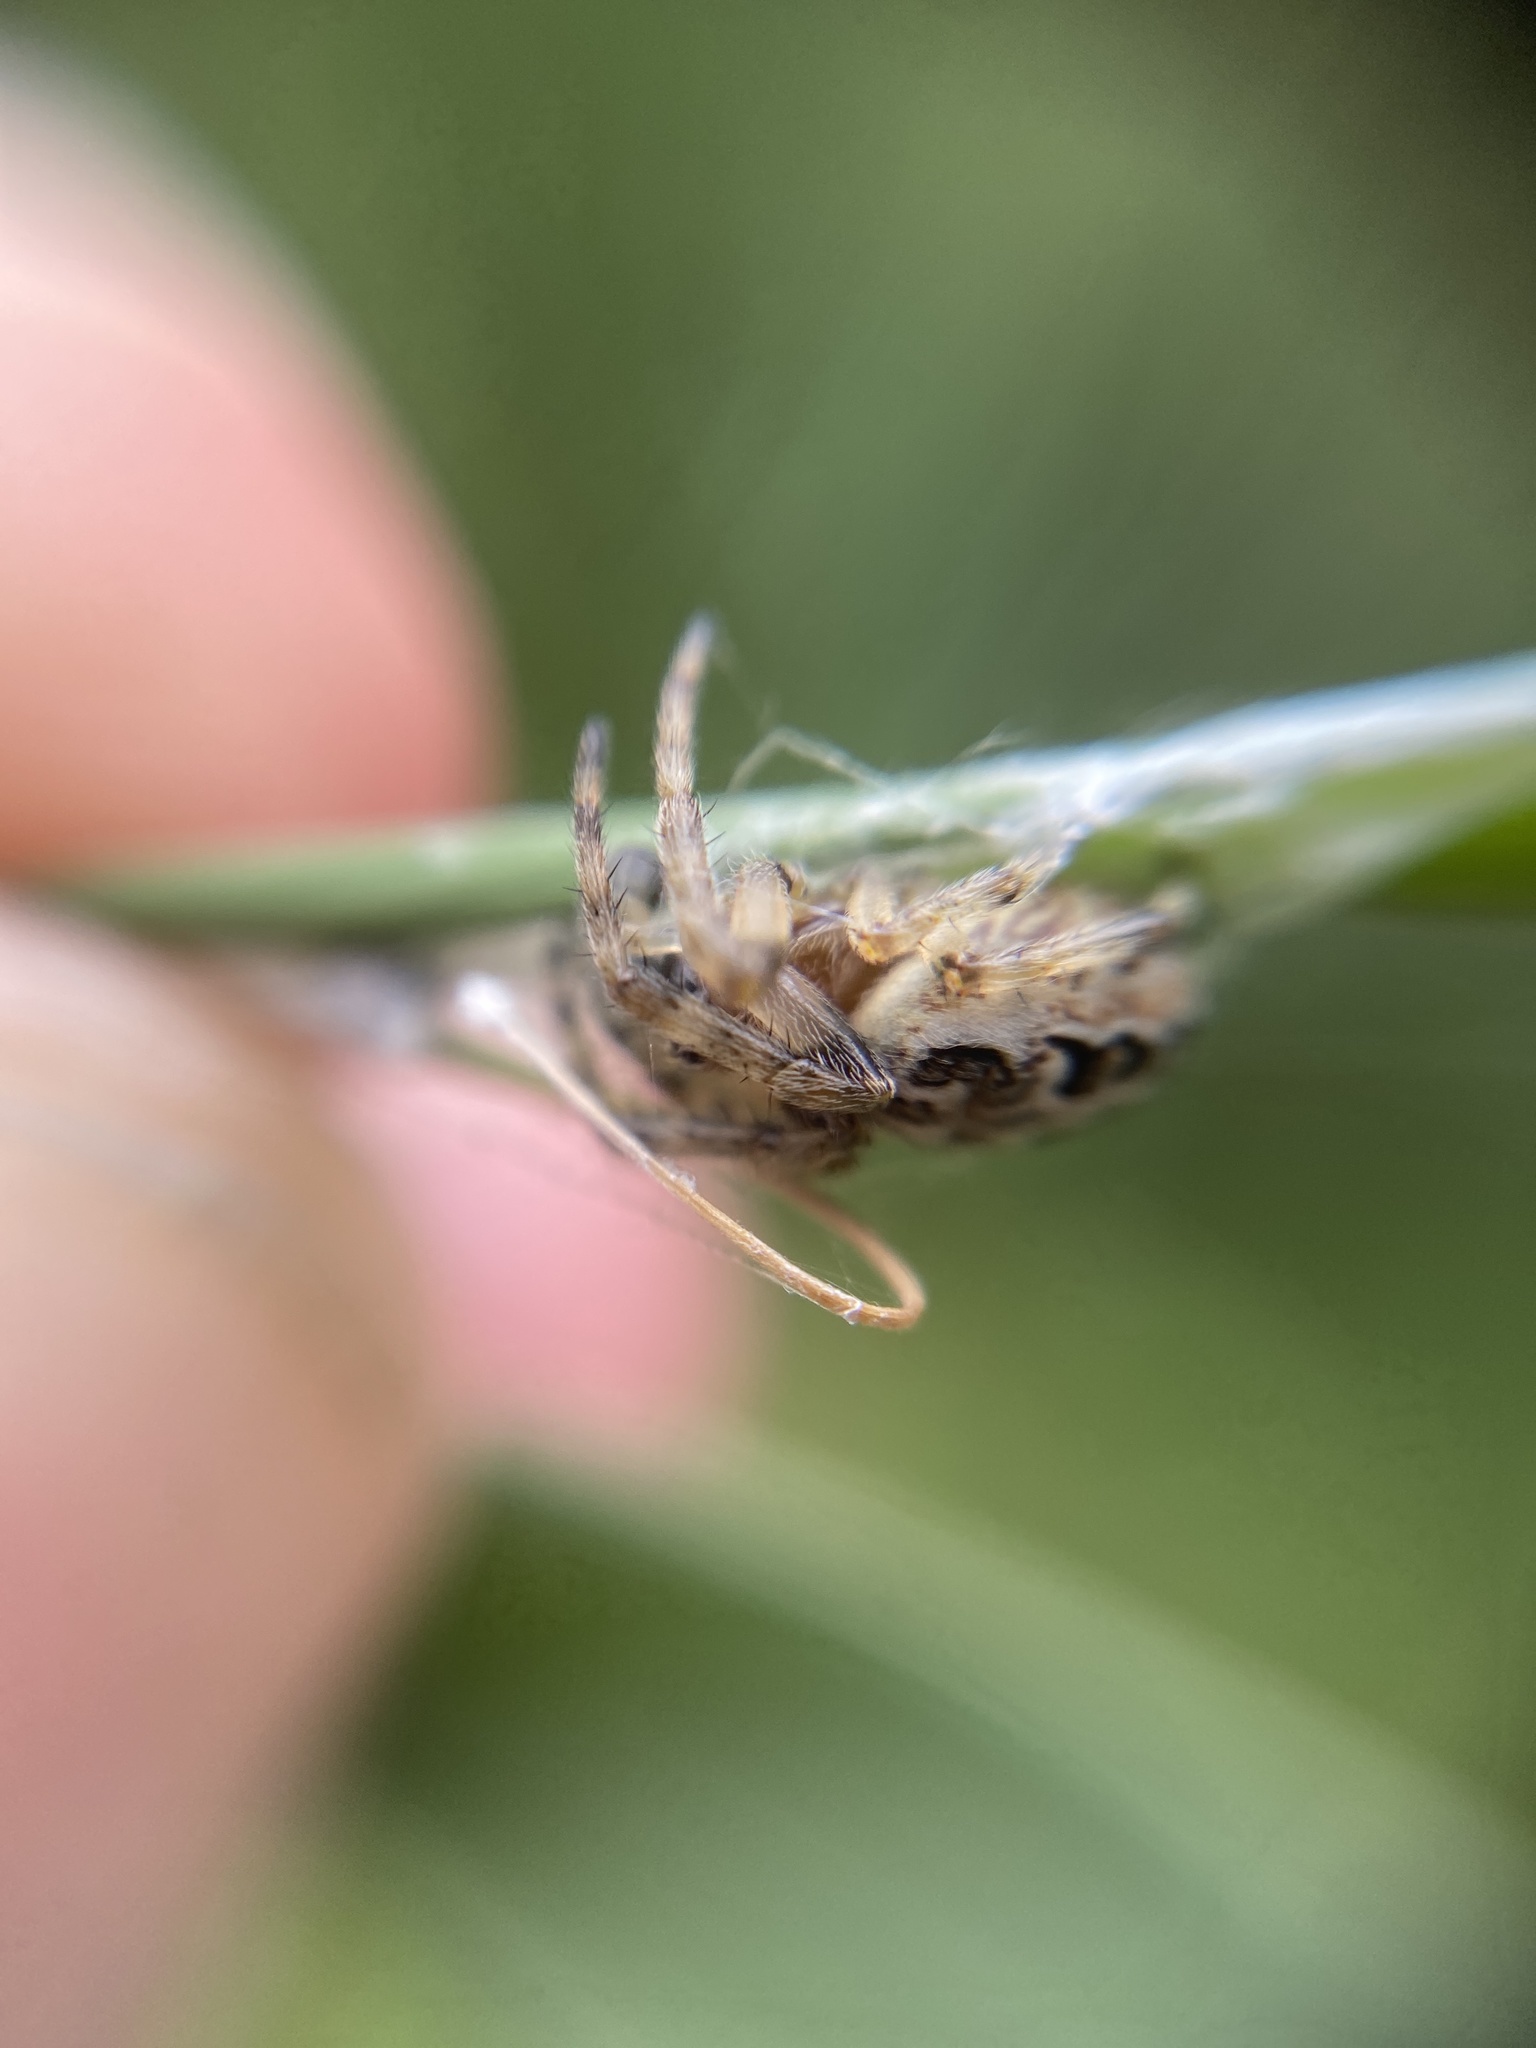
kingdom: Animalia
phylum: Arthropoda
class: Arachnida
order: Araneae
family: Araneidae
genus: Larinioides
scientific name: Larinioides cornutus
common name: Furrow orbweaver
